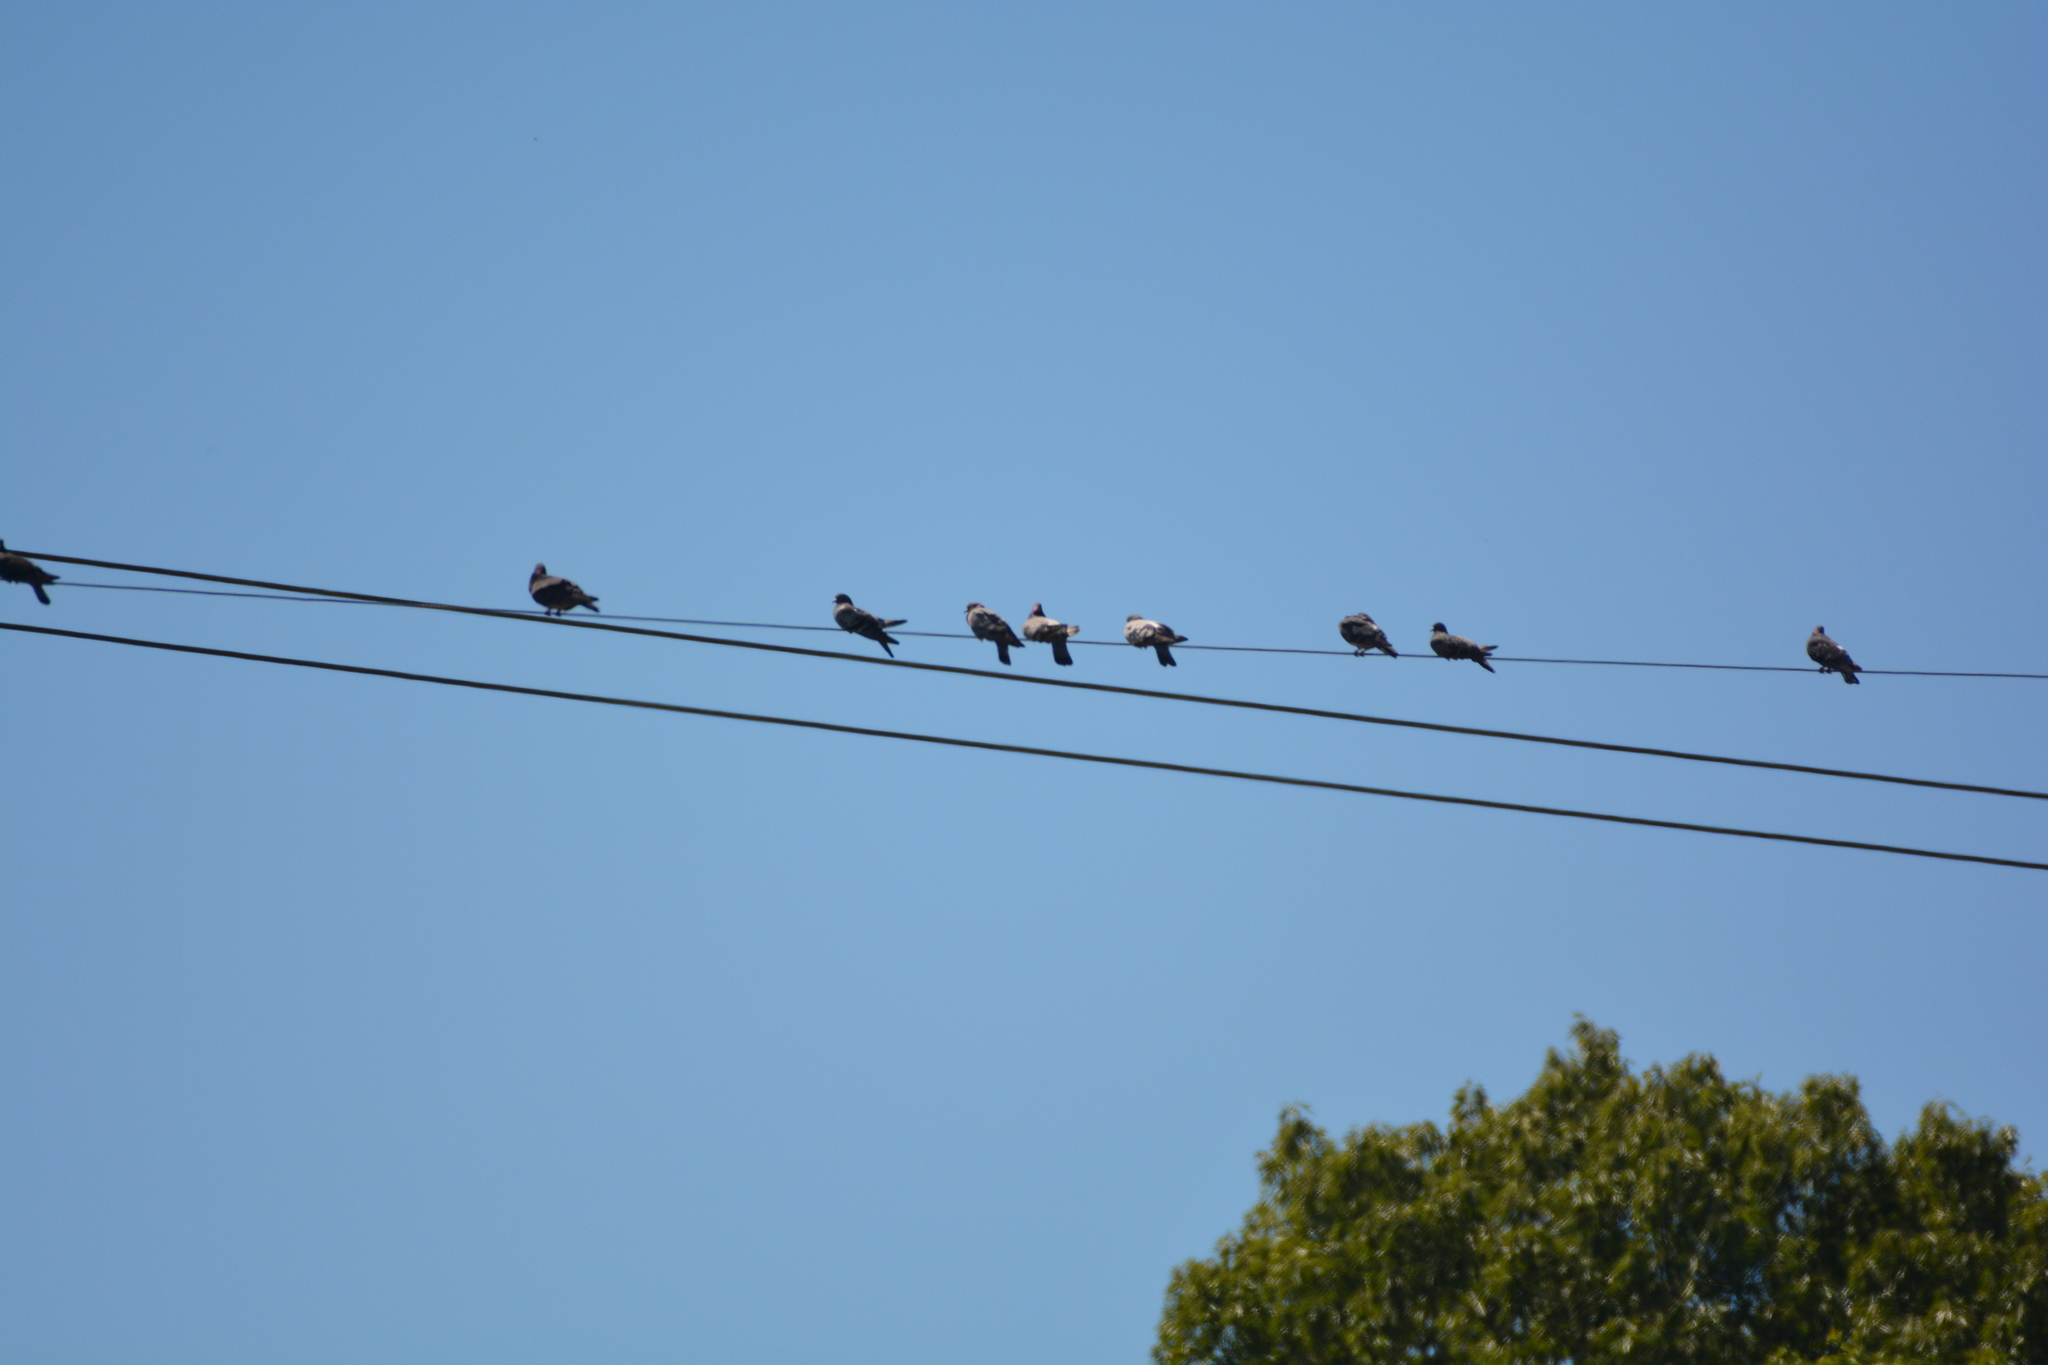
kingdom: Animalia
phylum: Chordata
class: Aves
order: Columbiformes
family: Columbidae
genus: Columba
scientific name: Columba livia
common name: Rock pigeon
